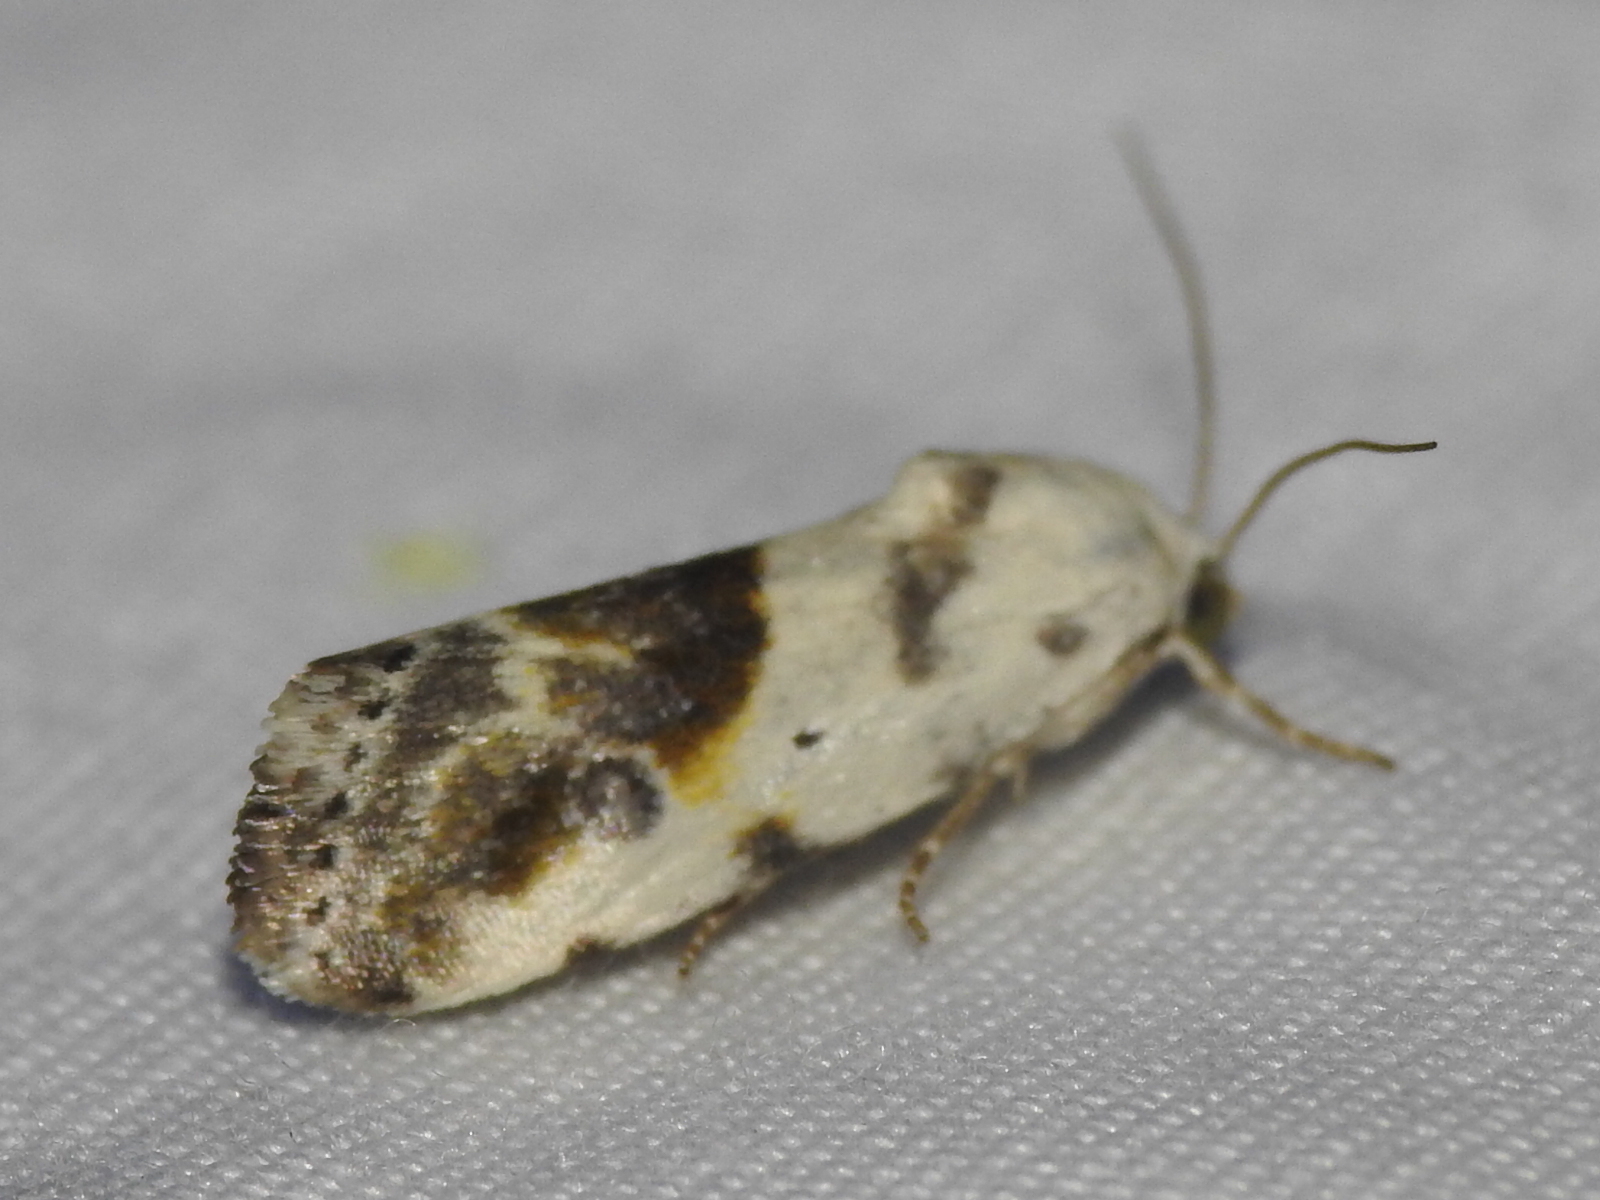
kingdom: Animalia
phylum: Arthropoda
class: Insecta
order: Lepidoptera
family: Noctuidae
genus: Acontia
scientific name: Acontia candefacta
